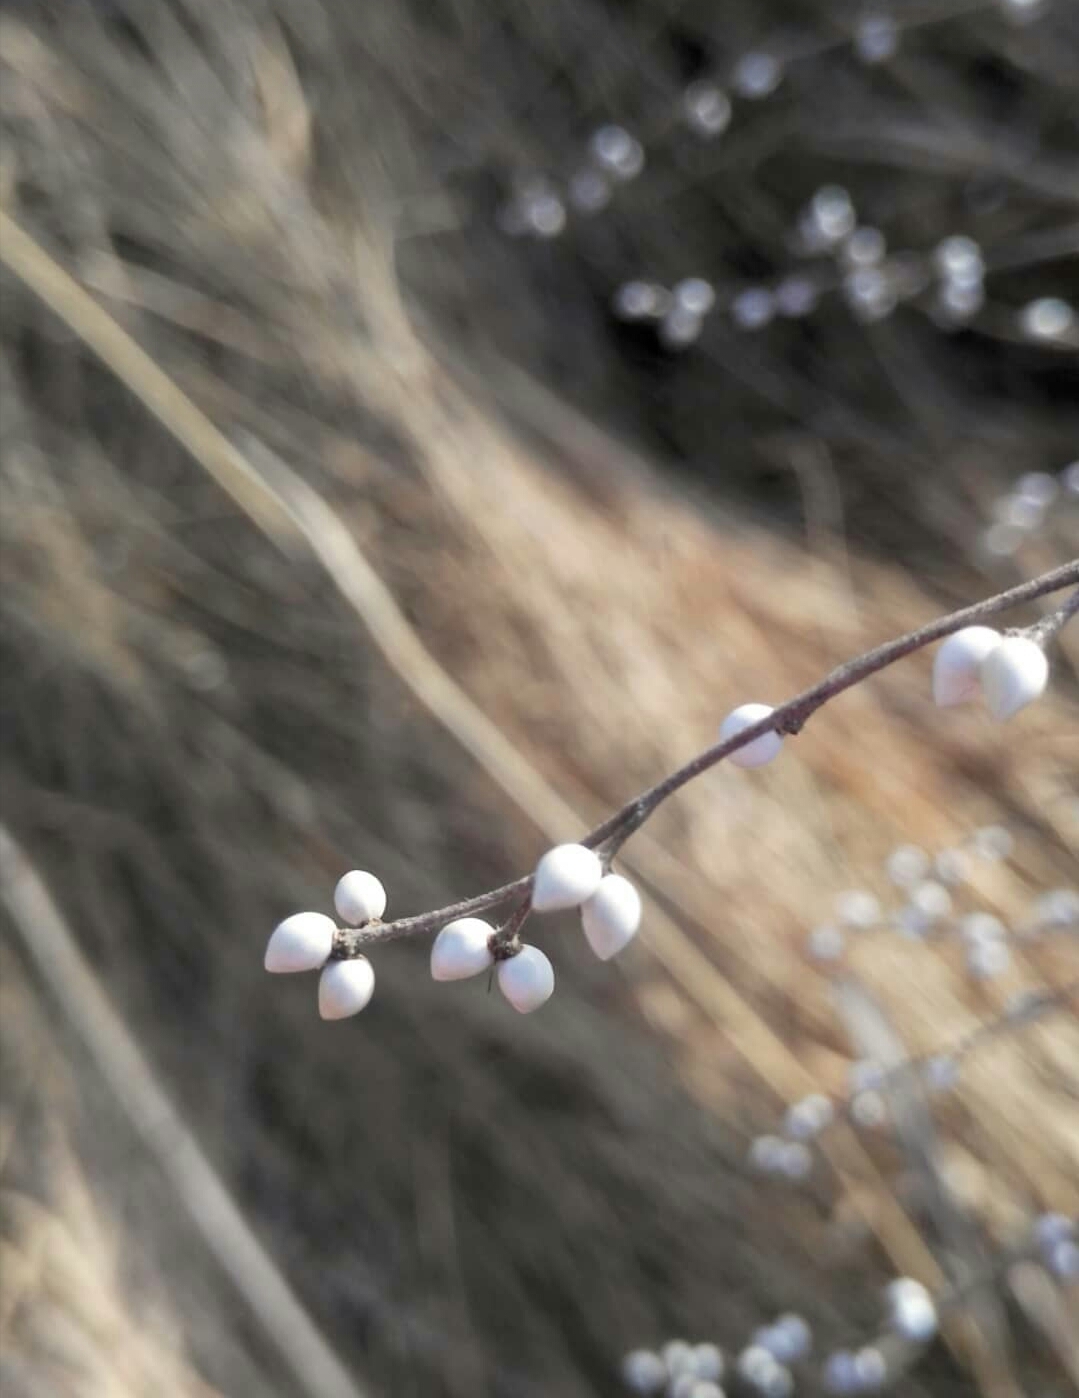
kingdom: Plantae
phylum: Tracheophyta
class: Magnoliopsida
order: Boraginales
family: Boraginaceae
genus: Lithospermum
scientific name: Lithospermum officinale
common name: Common gromwell
